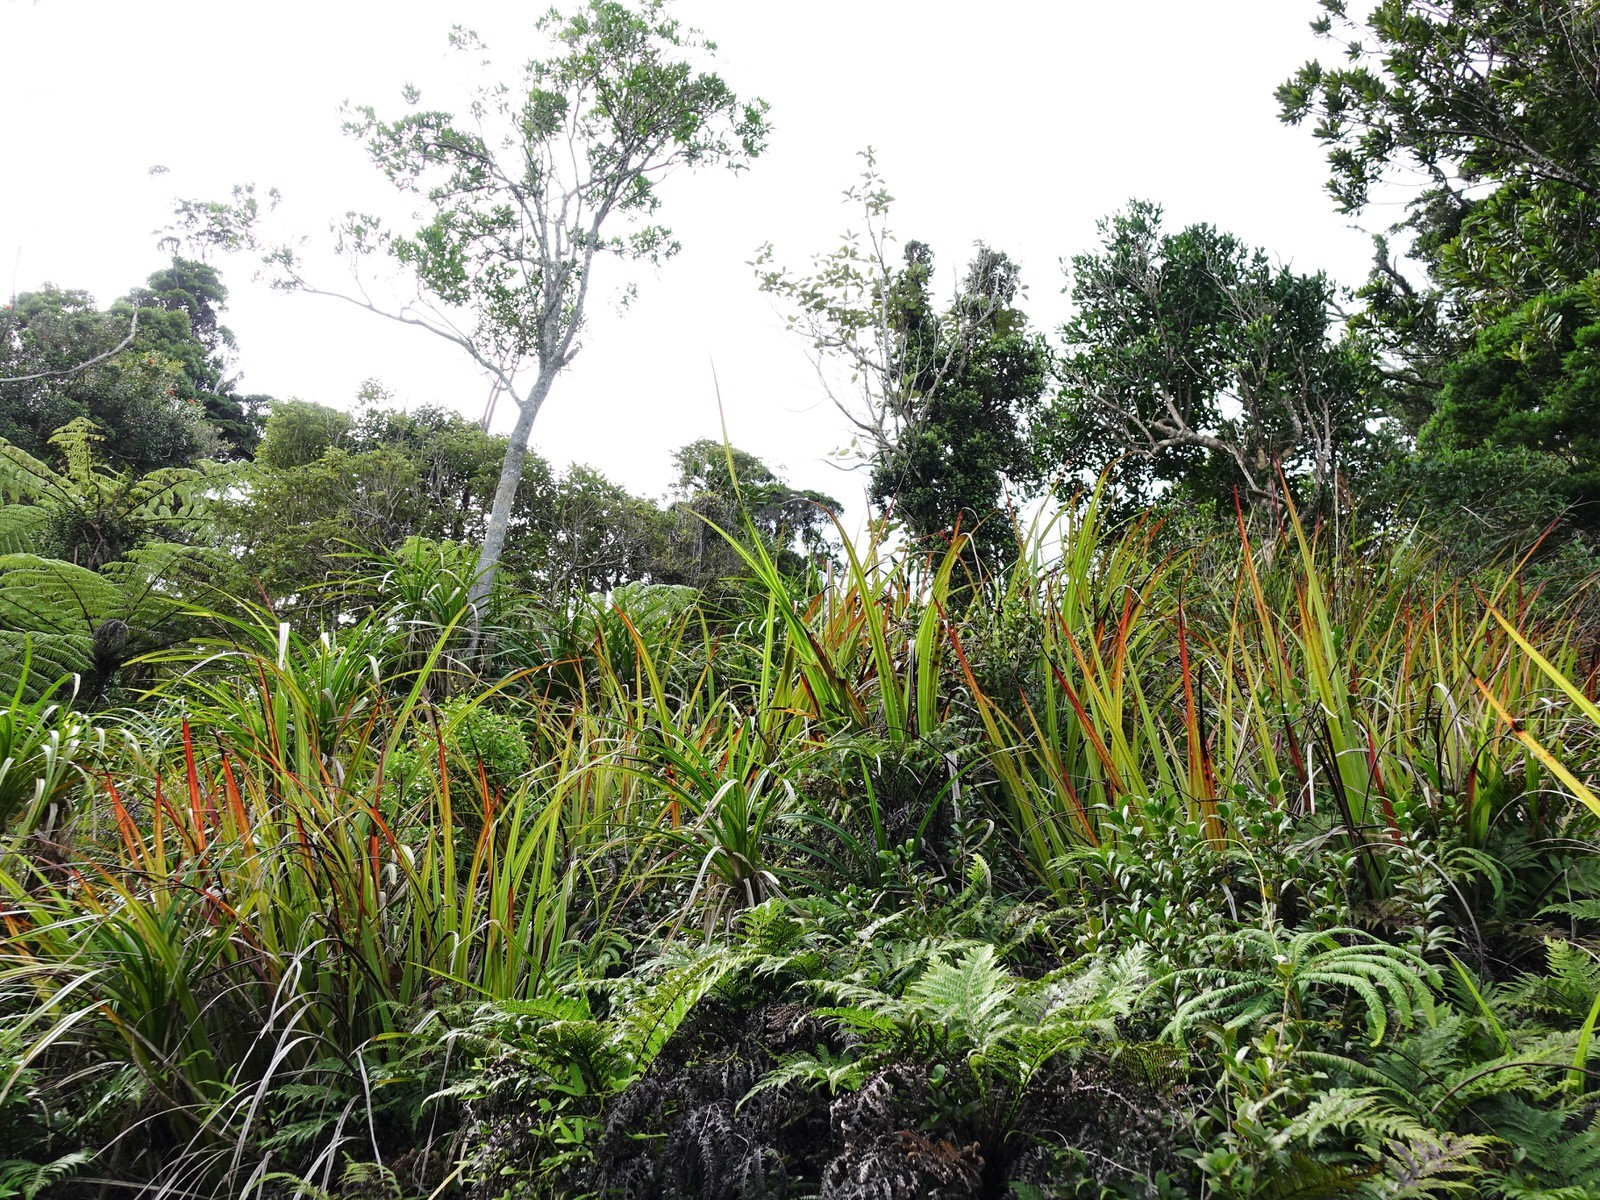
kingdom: Plantae
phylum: Tracheophyta
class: Liliopsida
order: Asparagales
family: Asteliaceae
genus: Astelia
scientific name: Astelia trinervia
